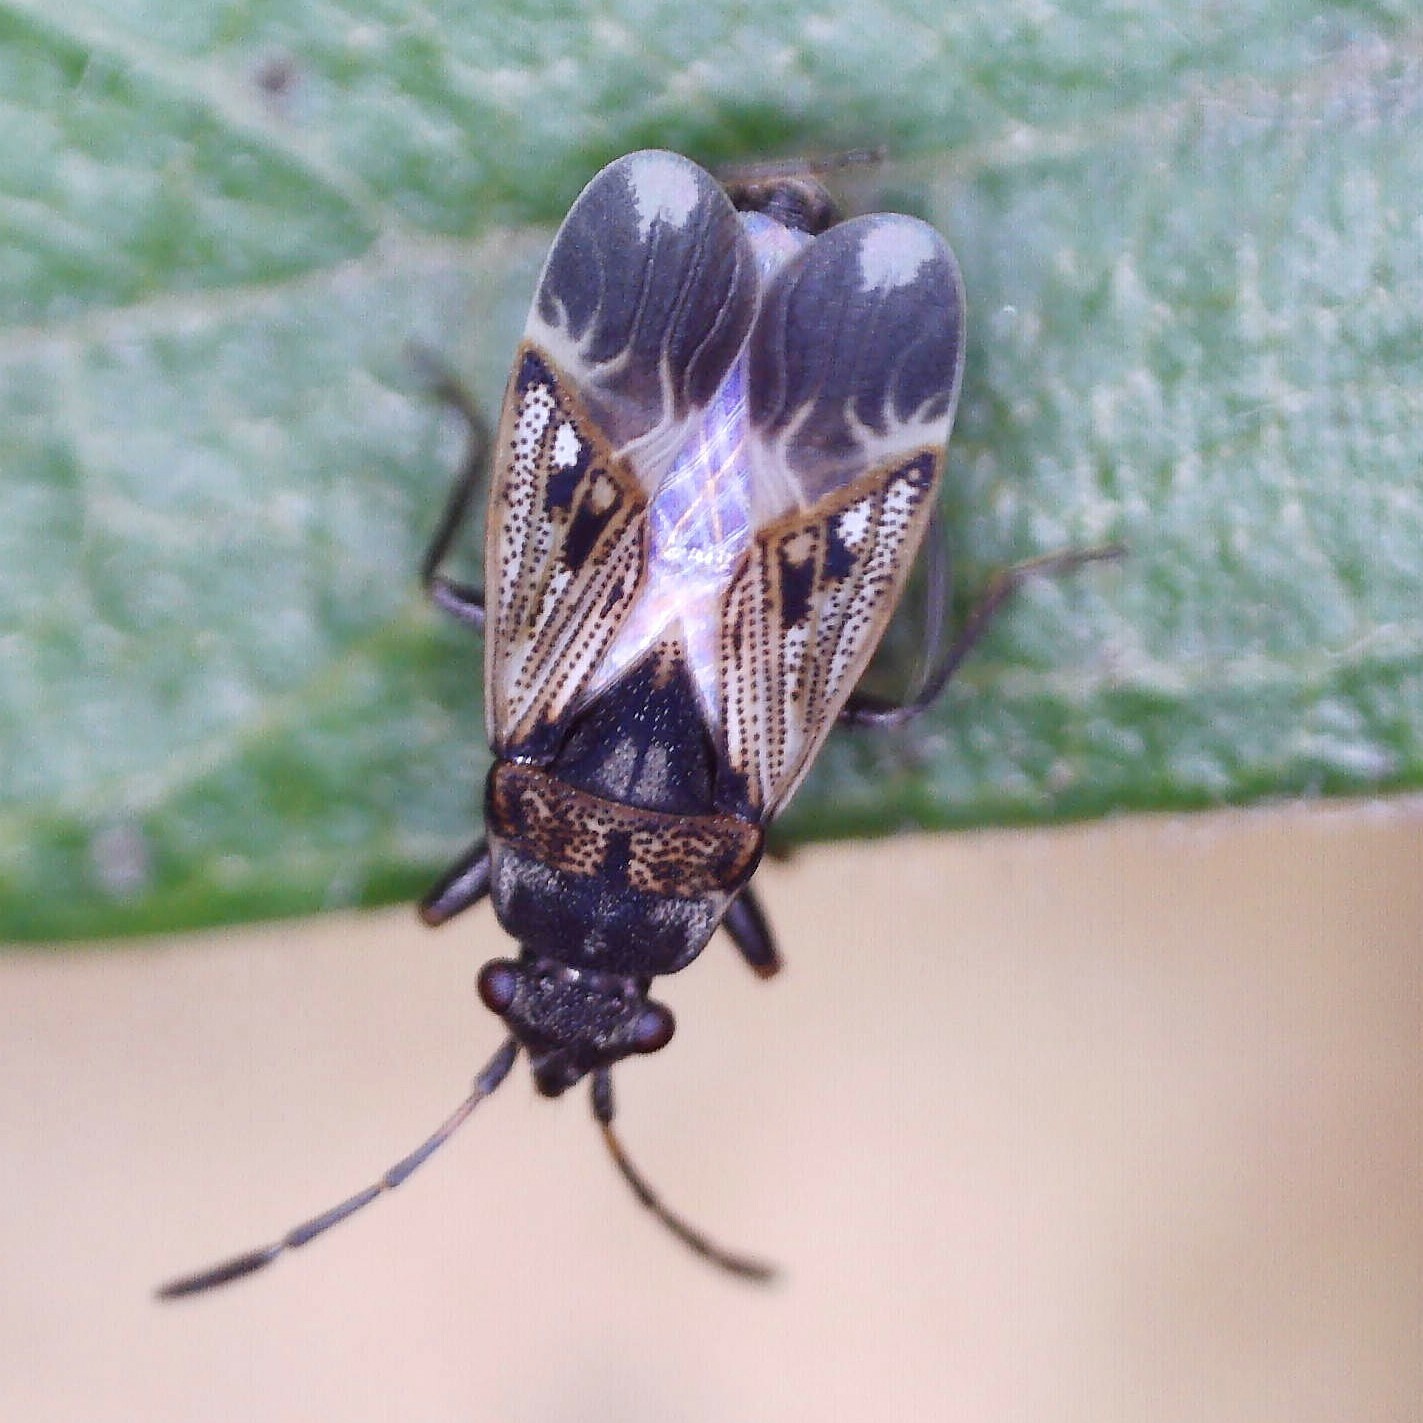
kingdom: Animalia
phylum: Arthropoda
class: Insecta
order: Hemiptera
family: Rhyparochromidae
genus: Peritrechus
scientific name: Peritrechus lundi
